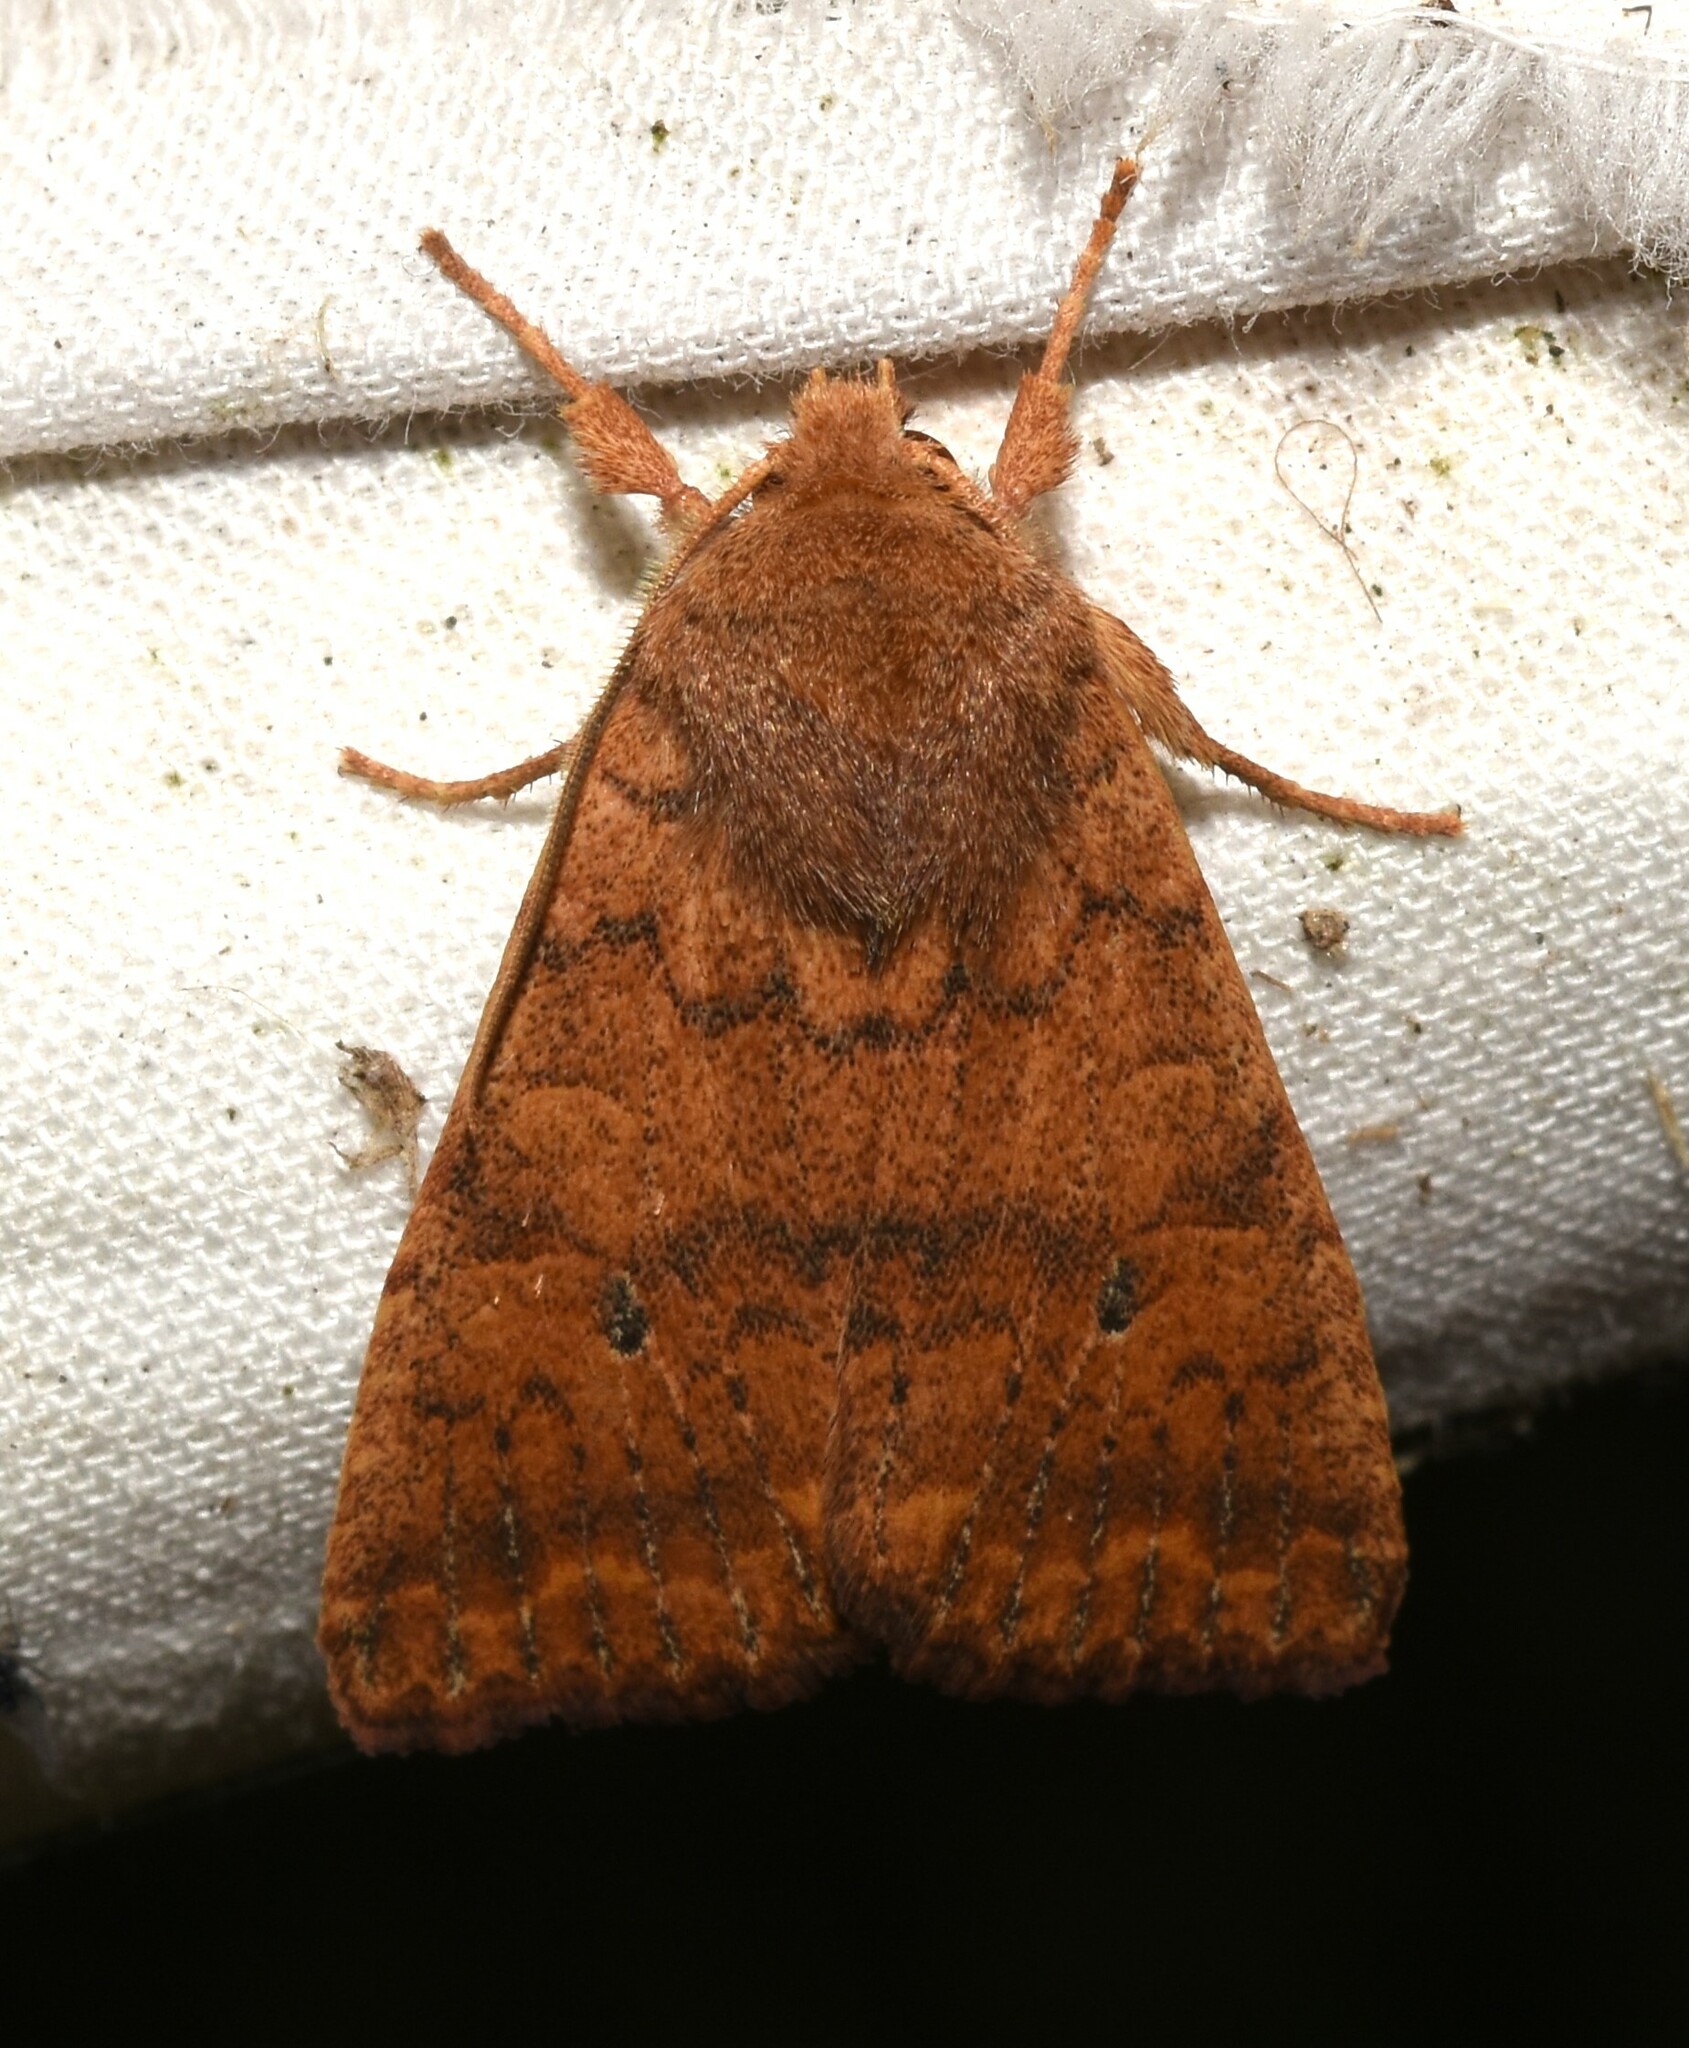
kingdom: Animalia
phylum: Arthropoda
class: Insecta
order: Lepidoptera
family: Noctuidae
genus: Agrochola
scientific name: Agrochola bicolorago
